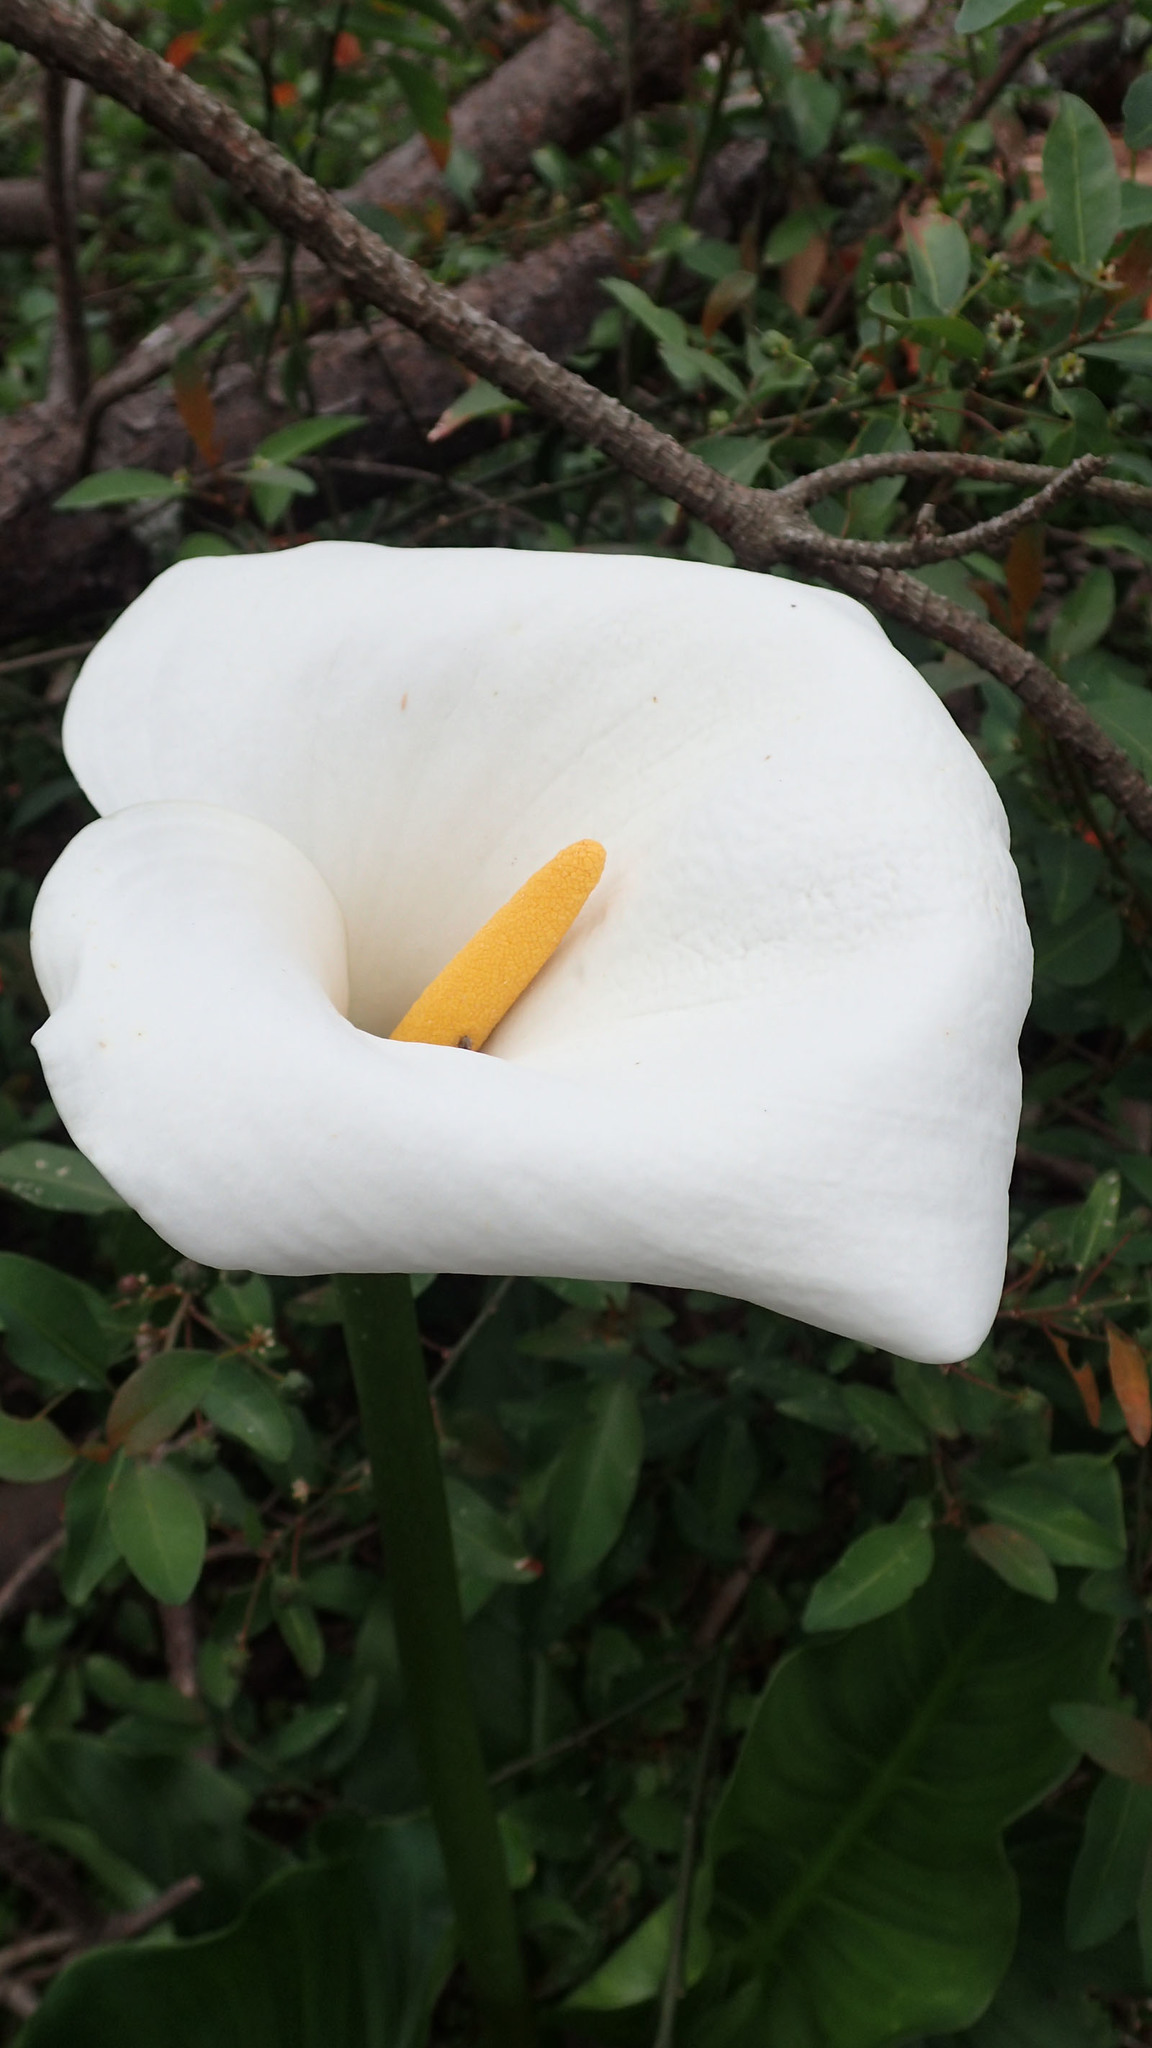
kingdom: Plantae
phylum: Tracheophyta
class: Liliopsida
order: Alismatales
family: Araceae
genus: Zantedeschia
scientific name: Zantedeschia aethiopica
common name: Altar-lily
